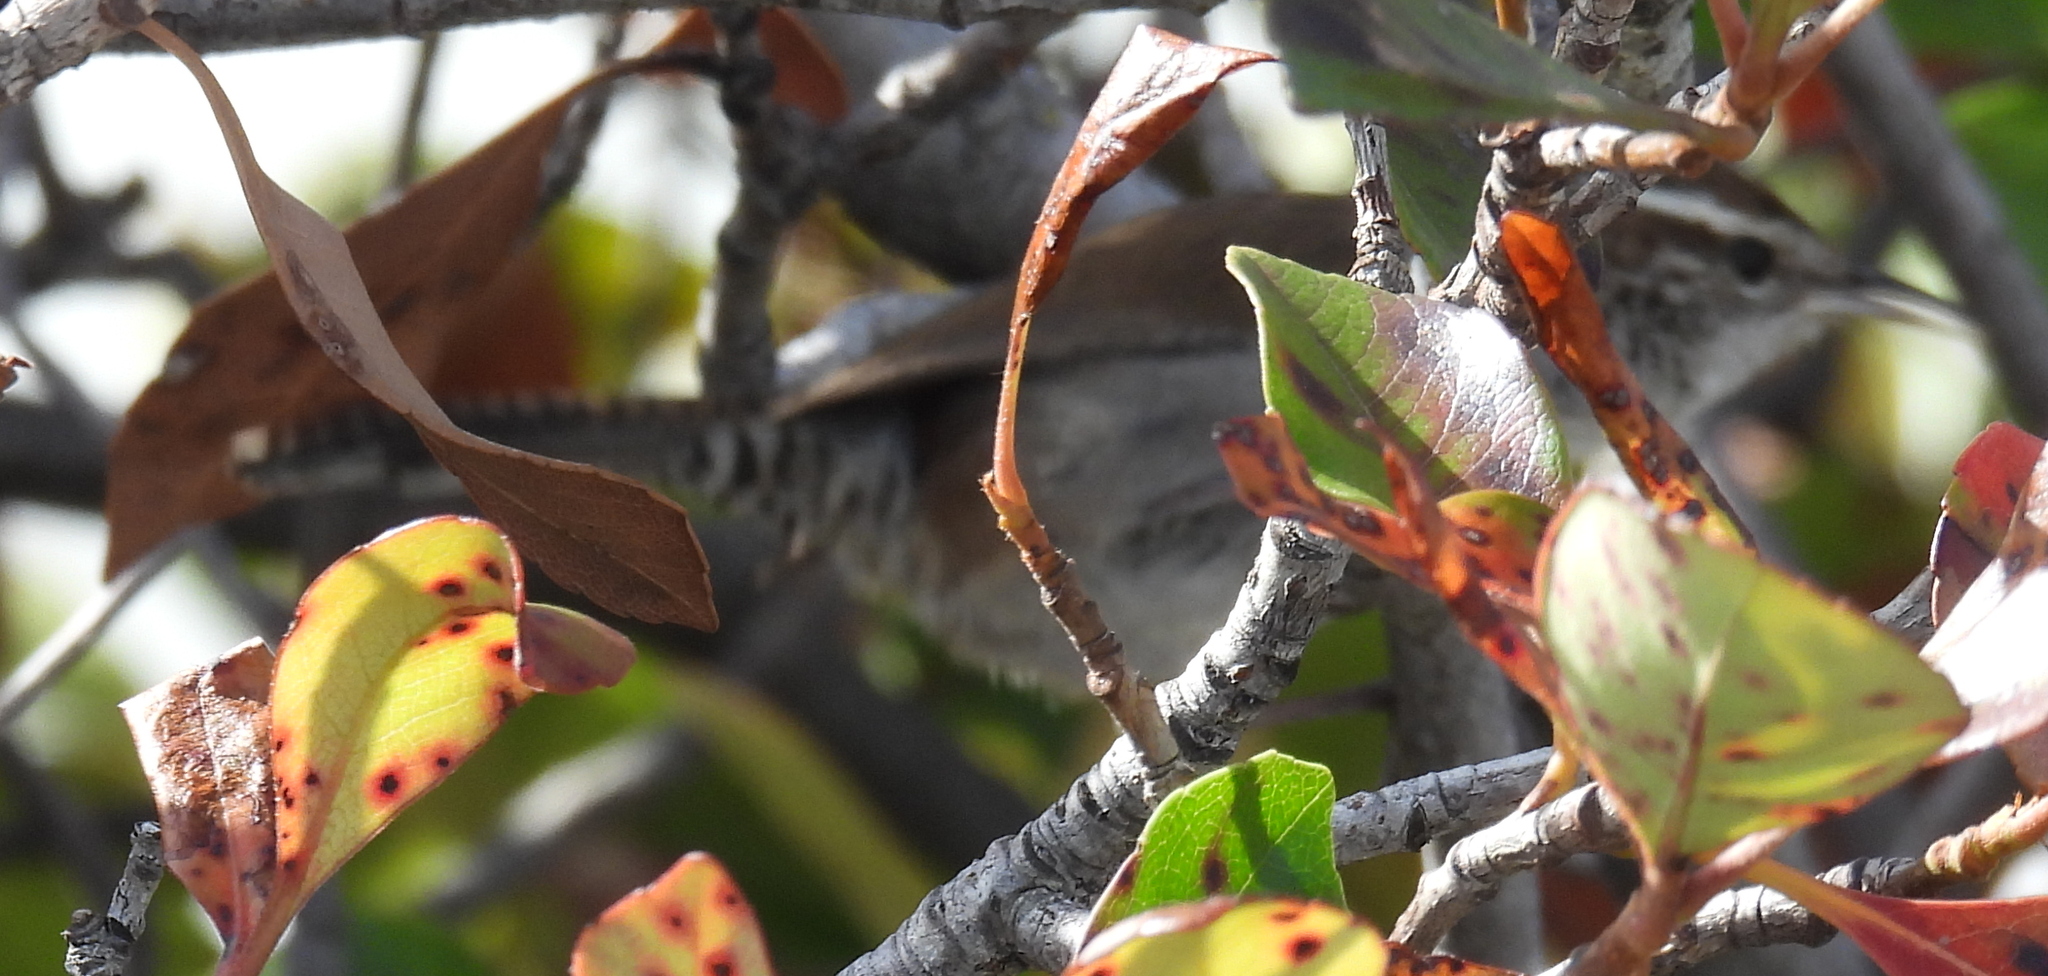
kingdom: Animalia
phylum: Chordata
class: Aves
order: Passeriformes
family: Troglodytidae
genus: Thryomanes
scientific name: Thryomanes bewickii
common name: Bewick's wren
